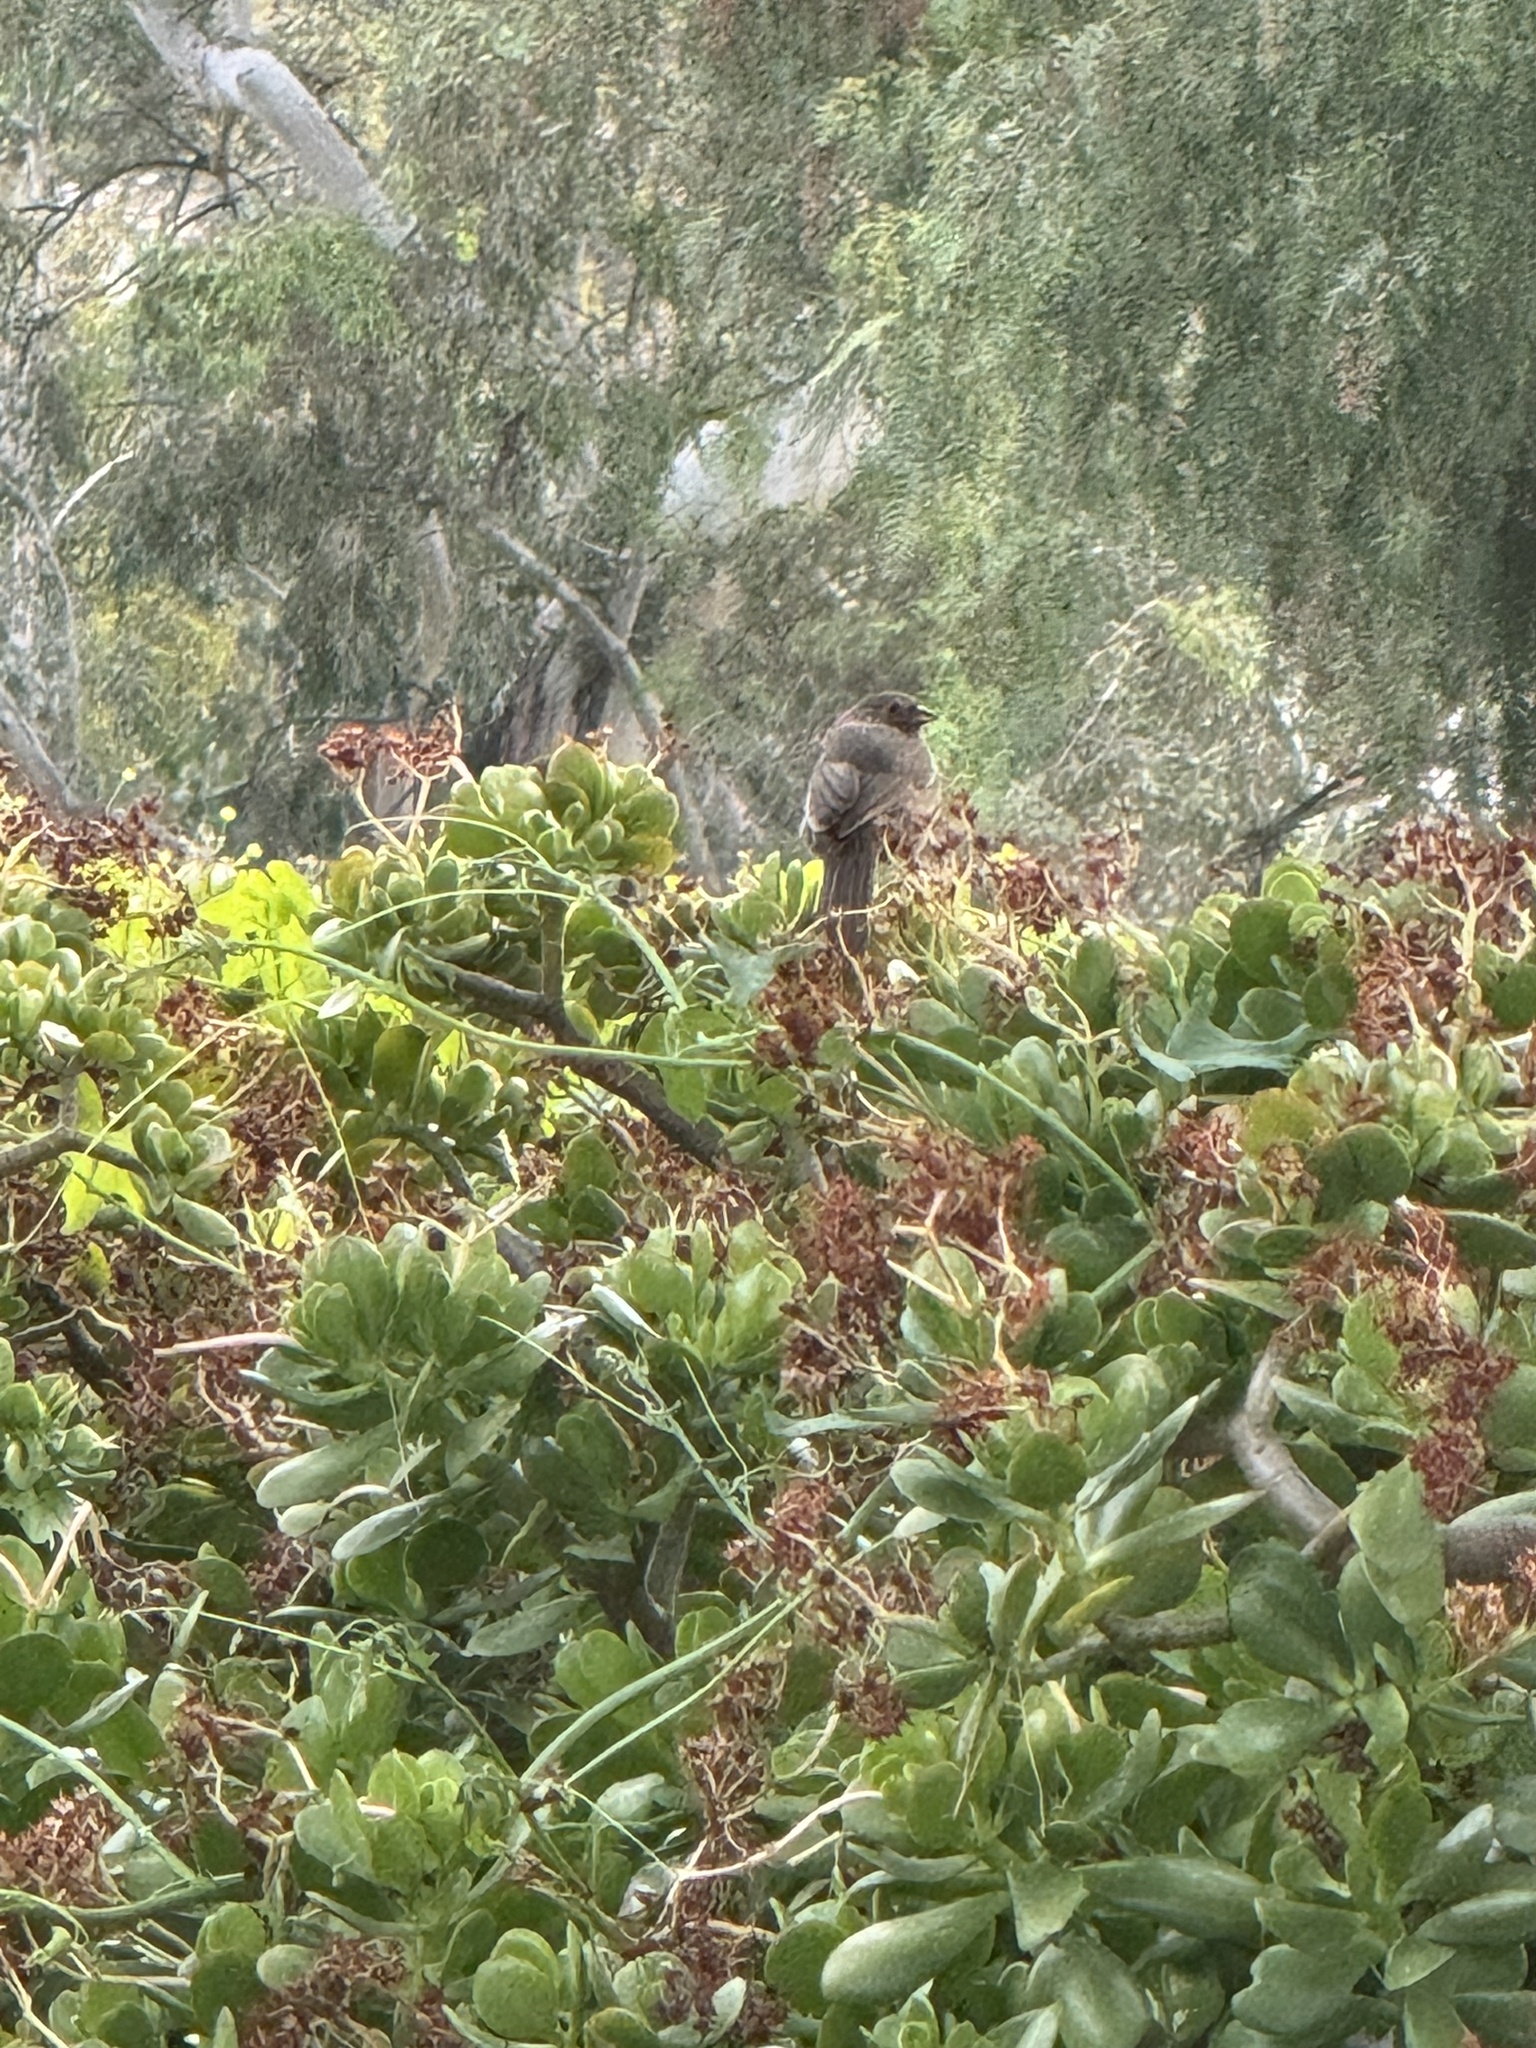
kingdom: Animalia
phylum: Chordata
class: Aves
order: Passeriformes
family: Passerellidae
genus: Melozone
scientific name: Melozone crissalis
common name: California towhee
